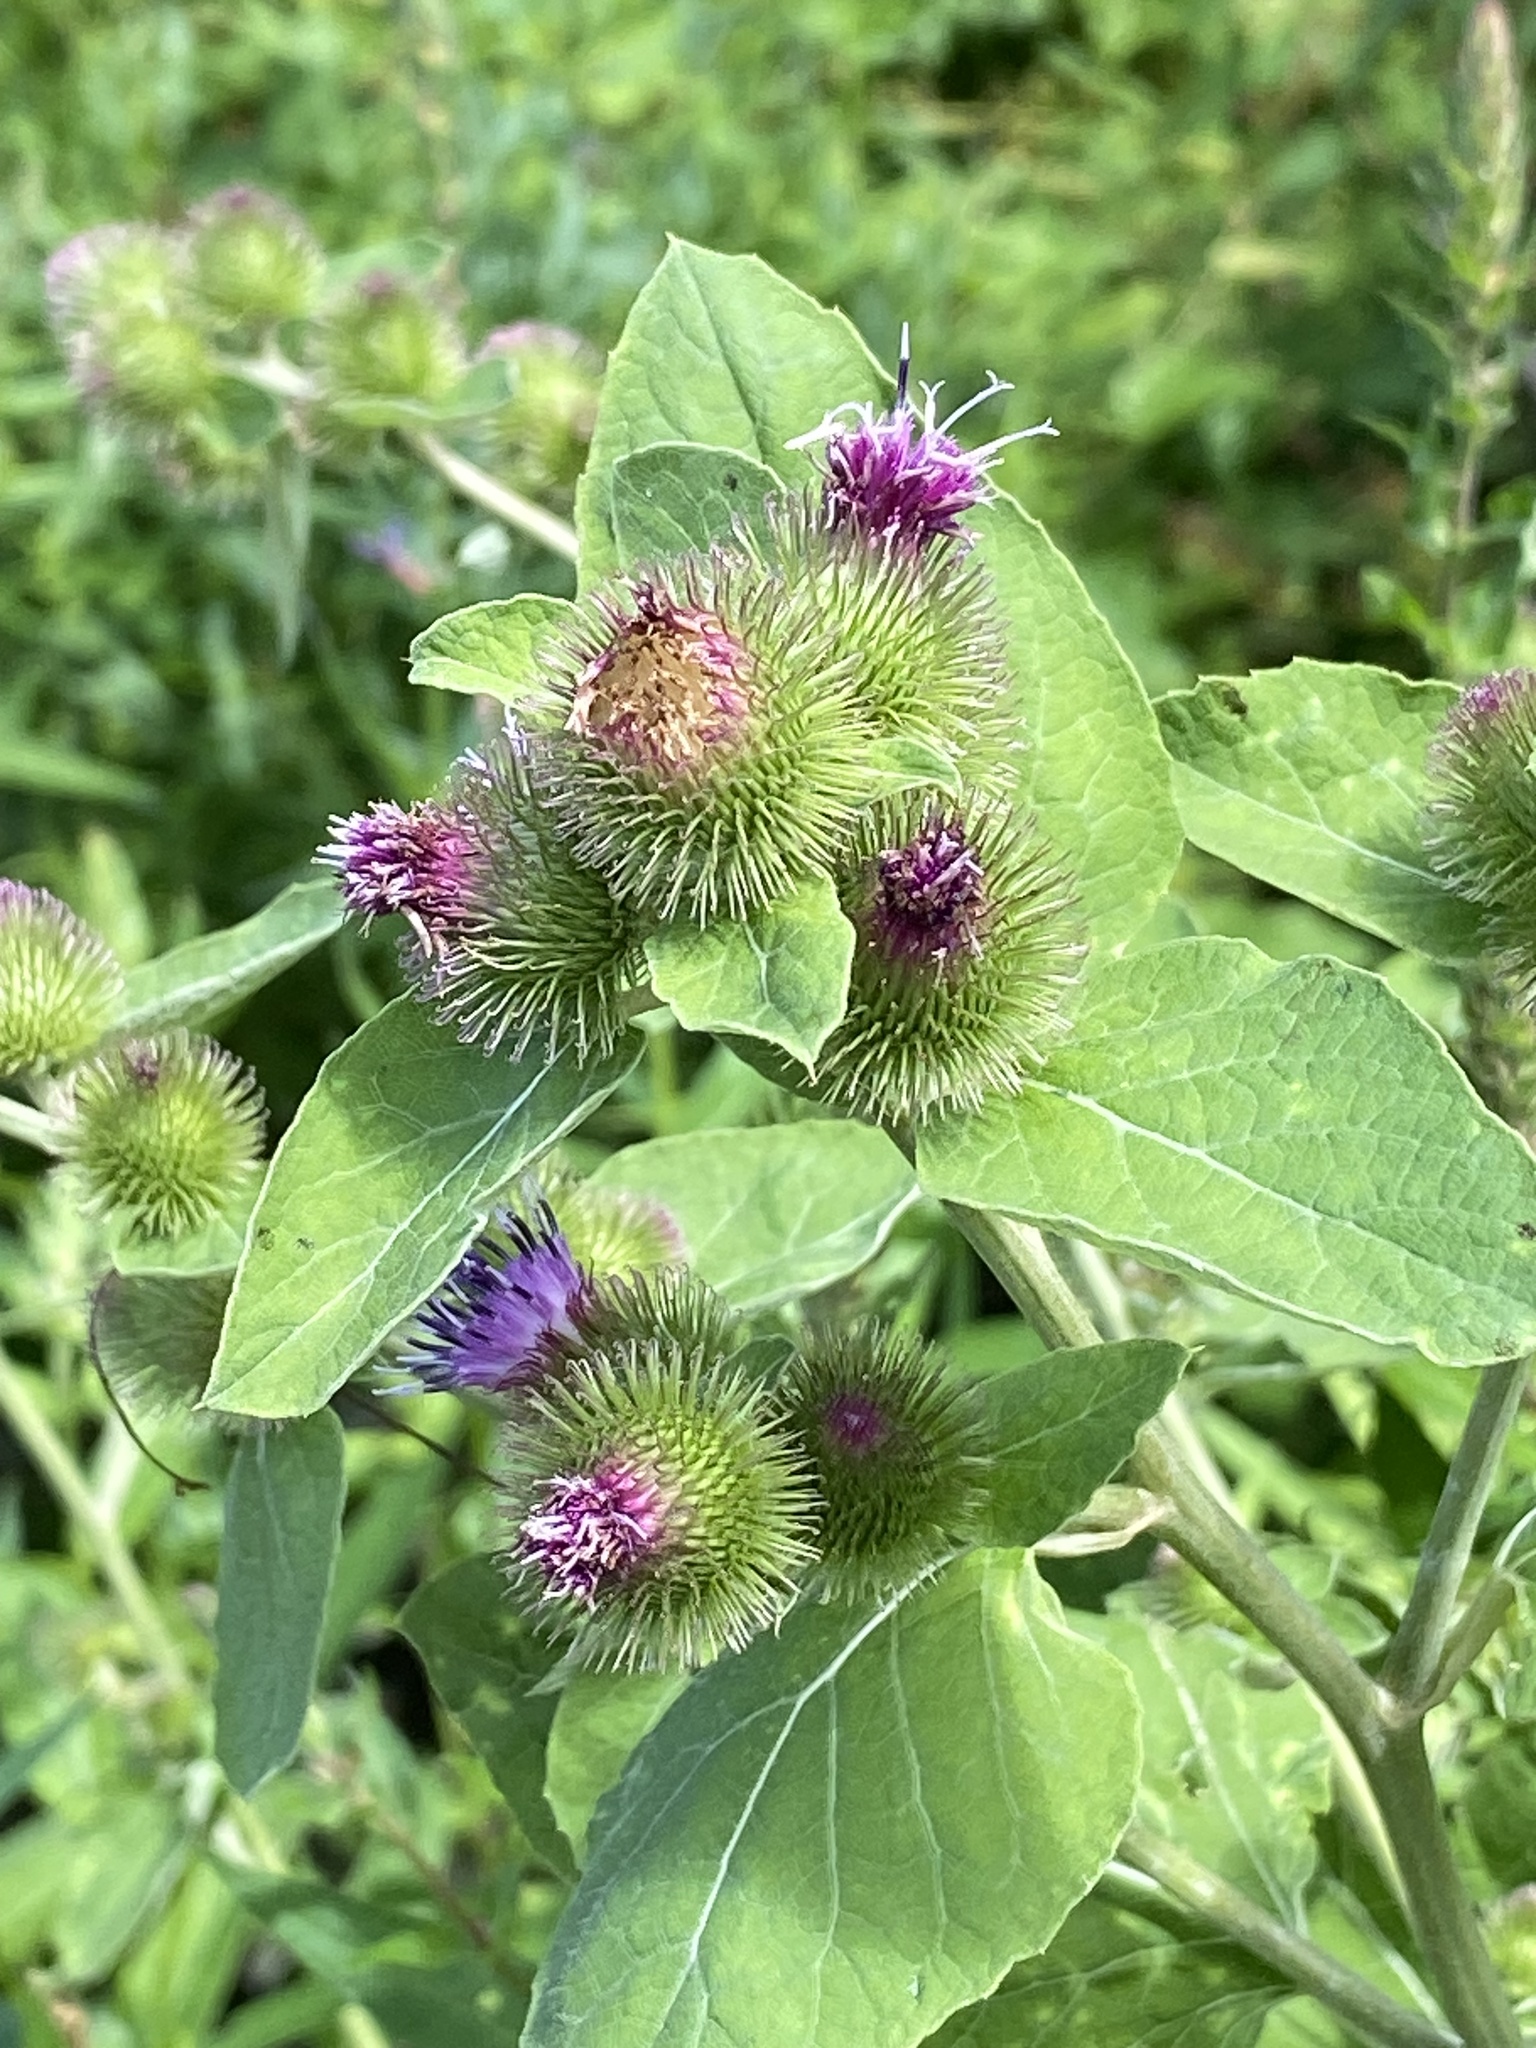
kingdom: Plantae
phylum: Tracheophyta
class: Magnoliopsida
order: Asterales
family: Asteraceae
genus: Arctium
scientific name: Arctium minus
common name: Lesser burdock
